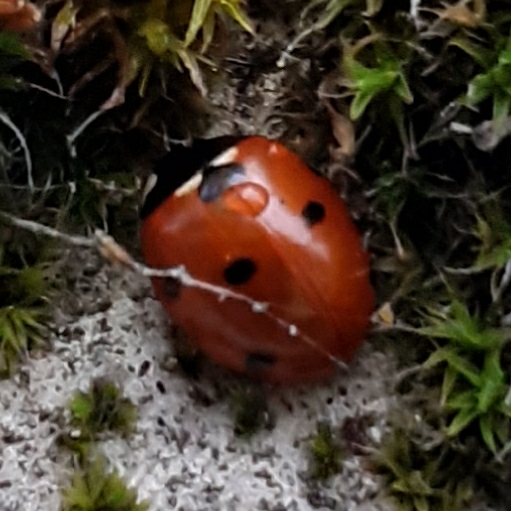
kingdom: Animalia
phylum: Arthropoda
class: Insecta
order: Coleoptera
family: Coccinellidae
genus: Coccinella
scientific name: Coccinella septempunctata
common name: Sevenspotted lady beetle
